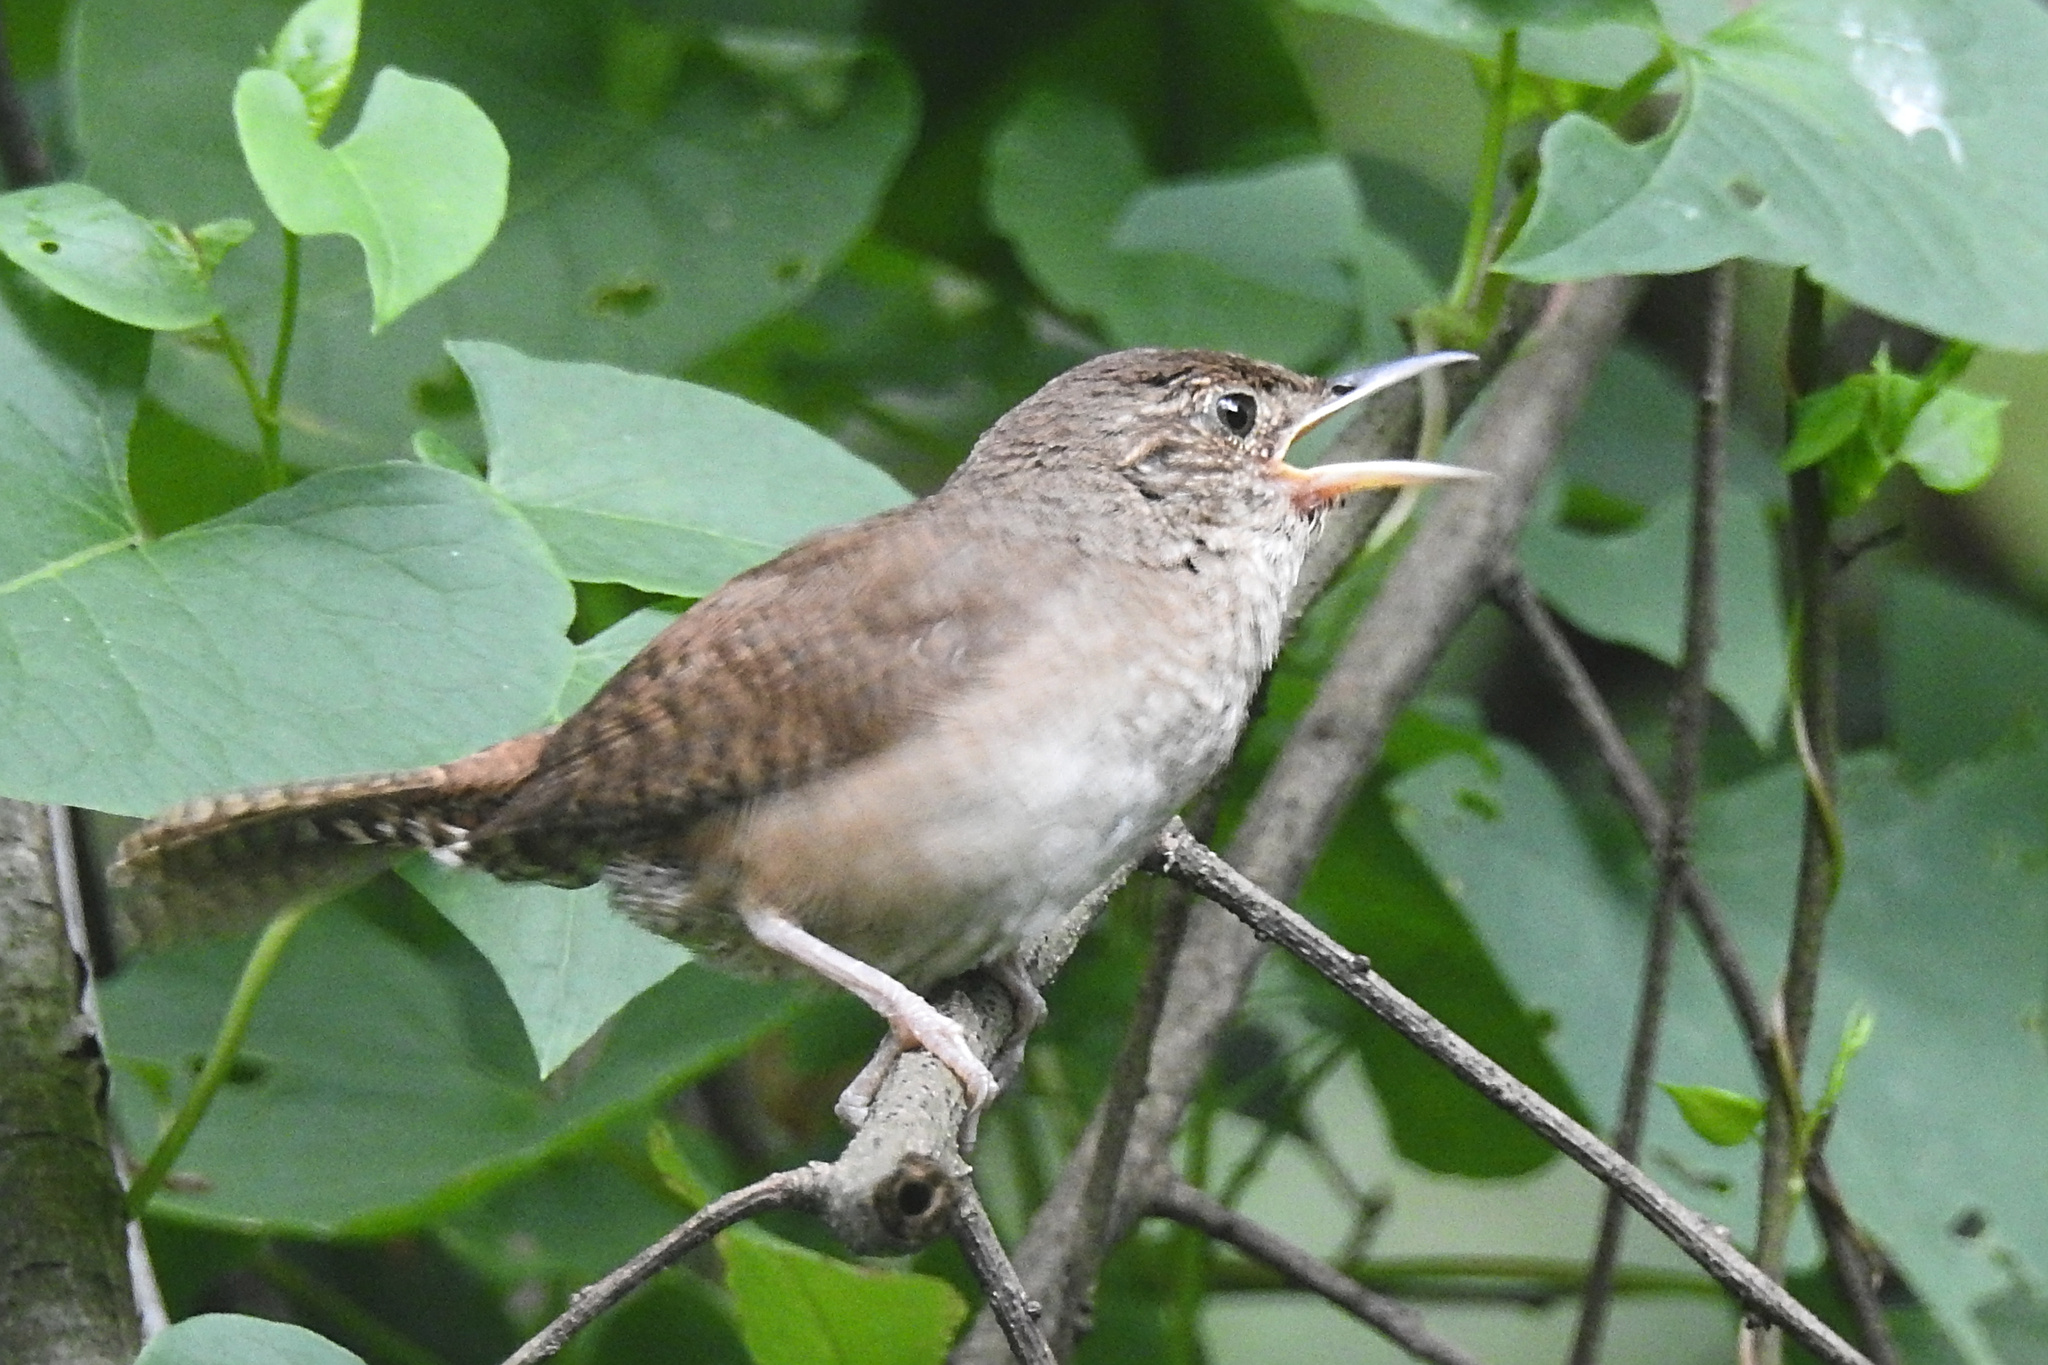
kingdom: Animalia
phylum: Chordata
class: Aves
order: Passeriformes
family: Troglodytidae
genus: Troglodytes
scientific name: Troglodytes aedon
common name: House wren
